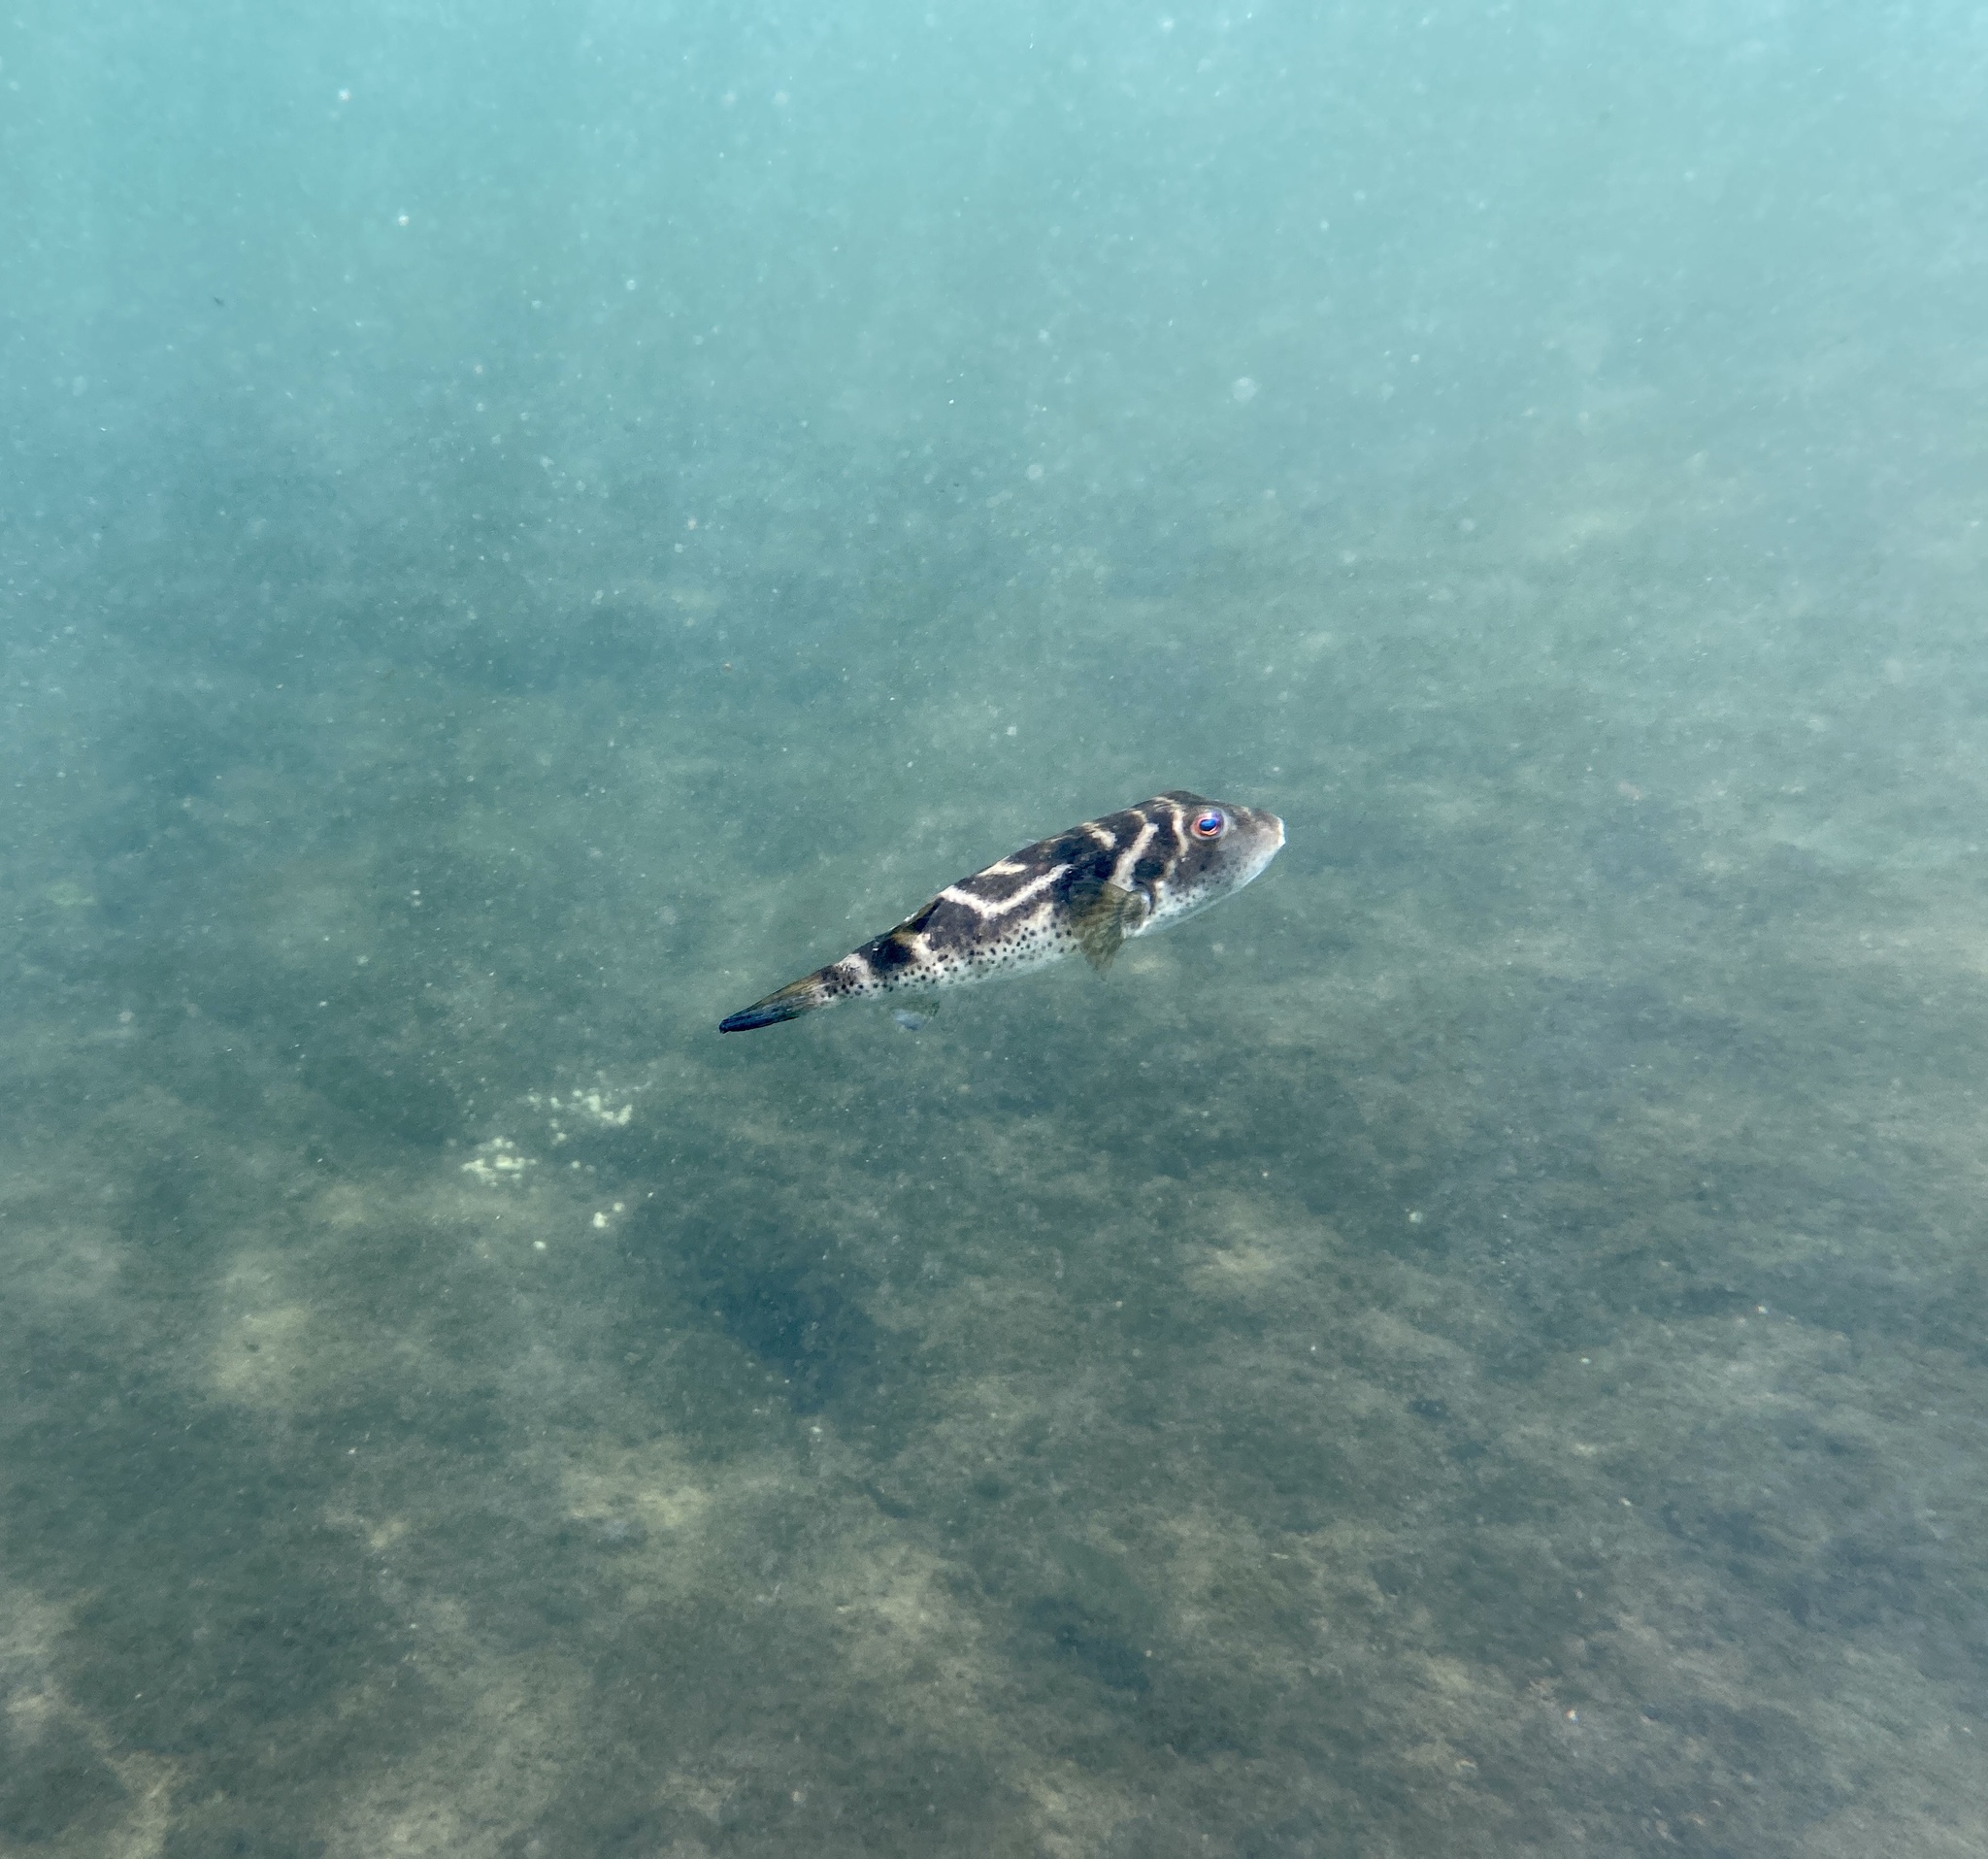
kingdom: Animalia
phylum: Chordata
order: Tetraodontiformes
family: Tetraodontidae
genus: Sphoeroides
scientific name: Sphoeroides annulatus
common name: Bullseye puffer
